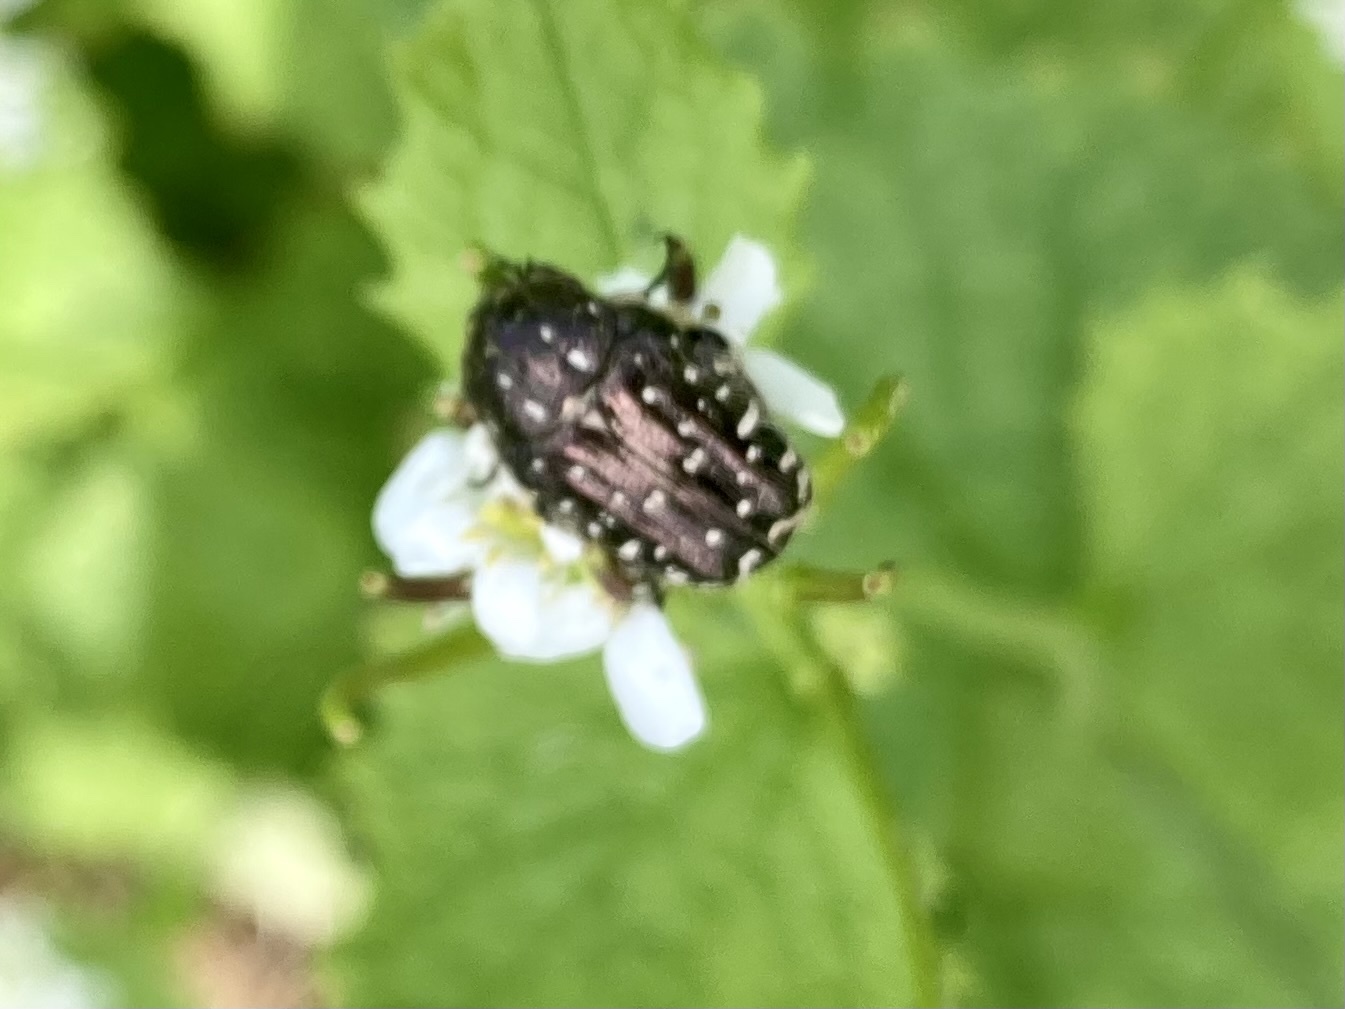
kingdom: Animalia
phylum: Arthropoda
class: Insecta
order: Coleoptera
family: Scarabaeidae
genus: Oxythyrea
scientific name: Oxythyrea funesta
